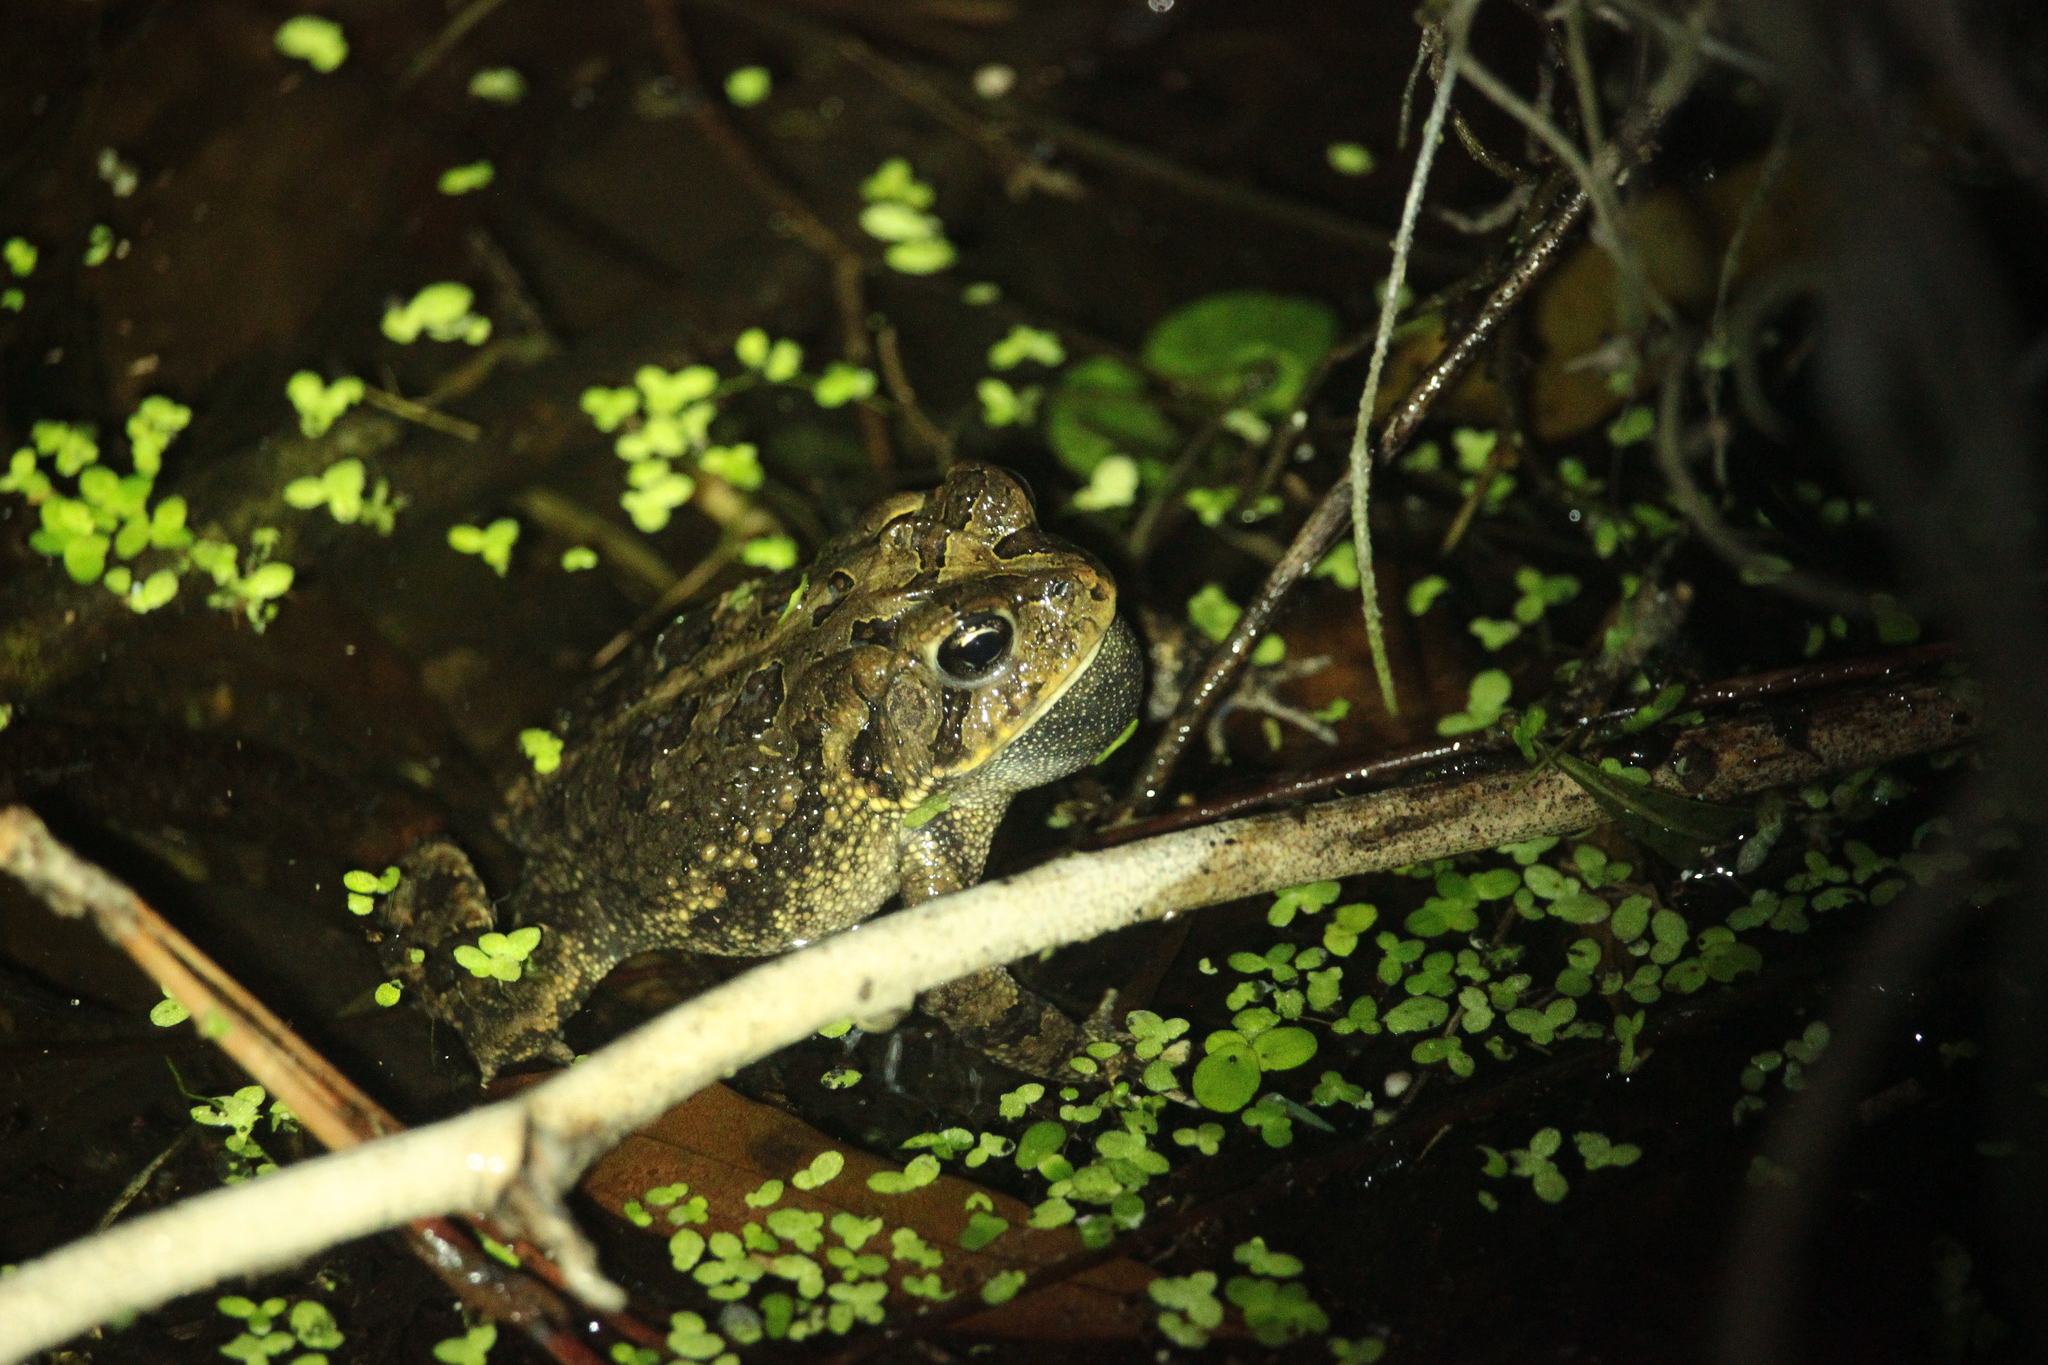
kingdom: Animalia
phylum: Chordata
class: Amphibia
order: Anura
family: Bufonidae
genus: Anaxyrus
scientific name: Anaxyrus terrestris
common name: Southern toad
